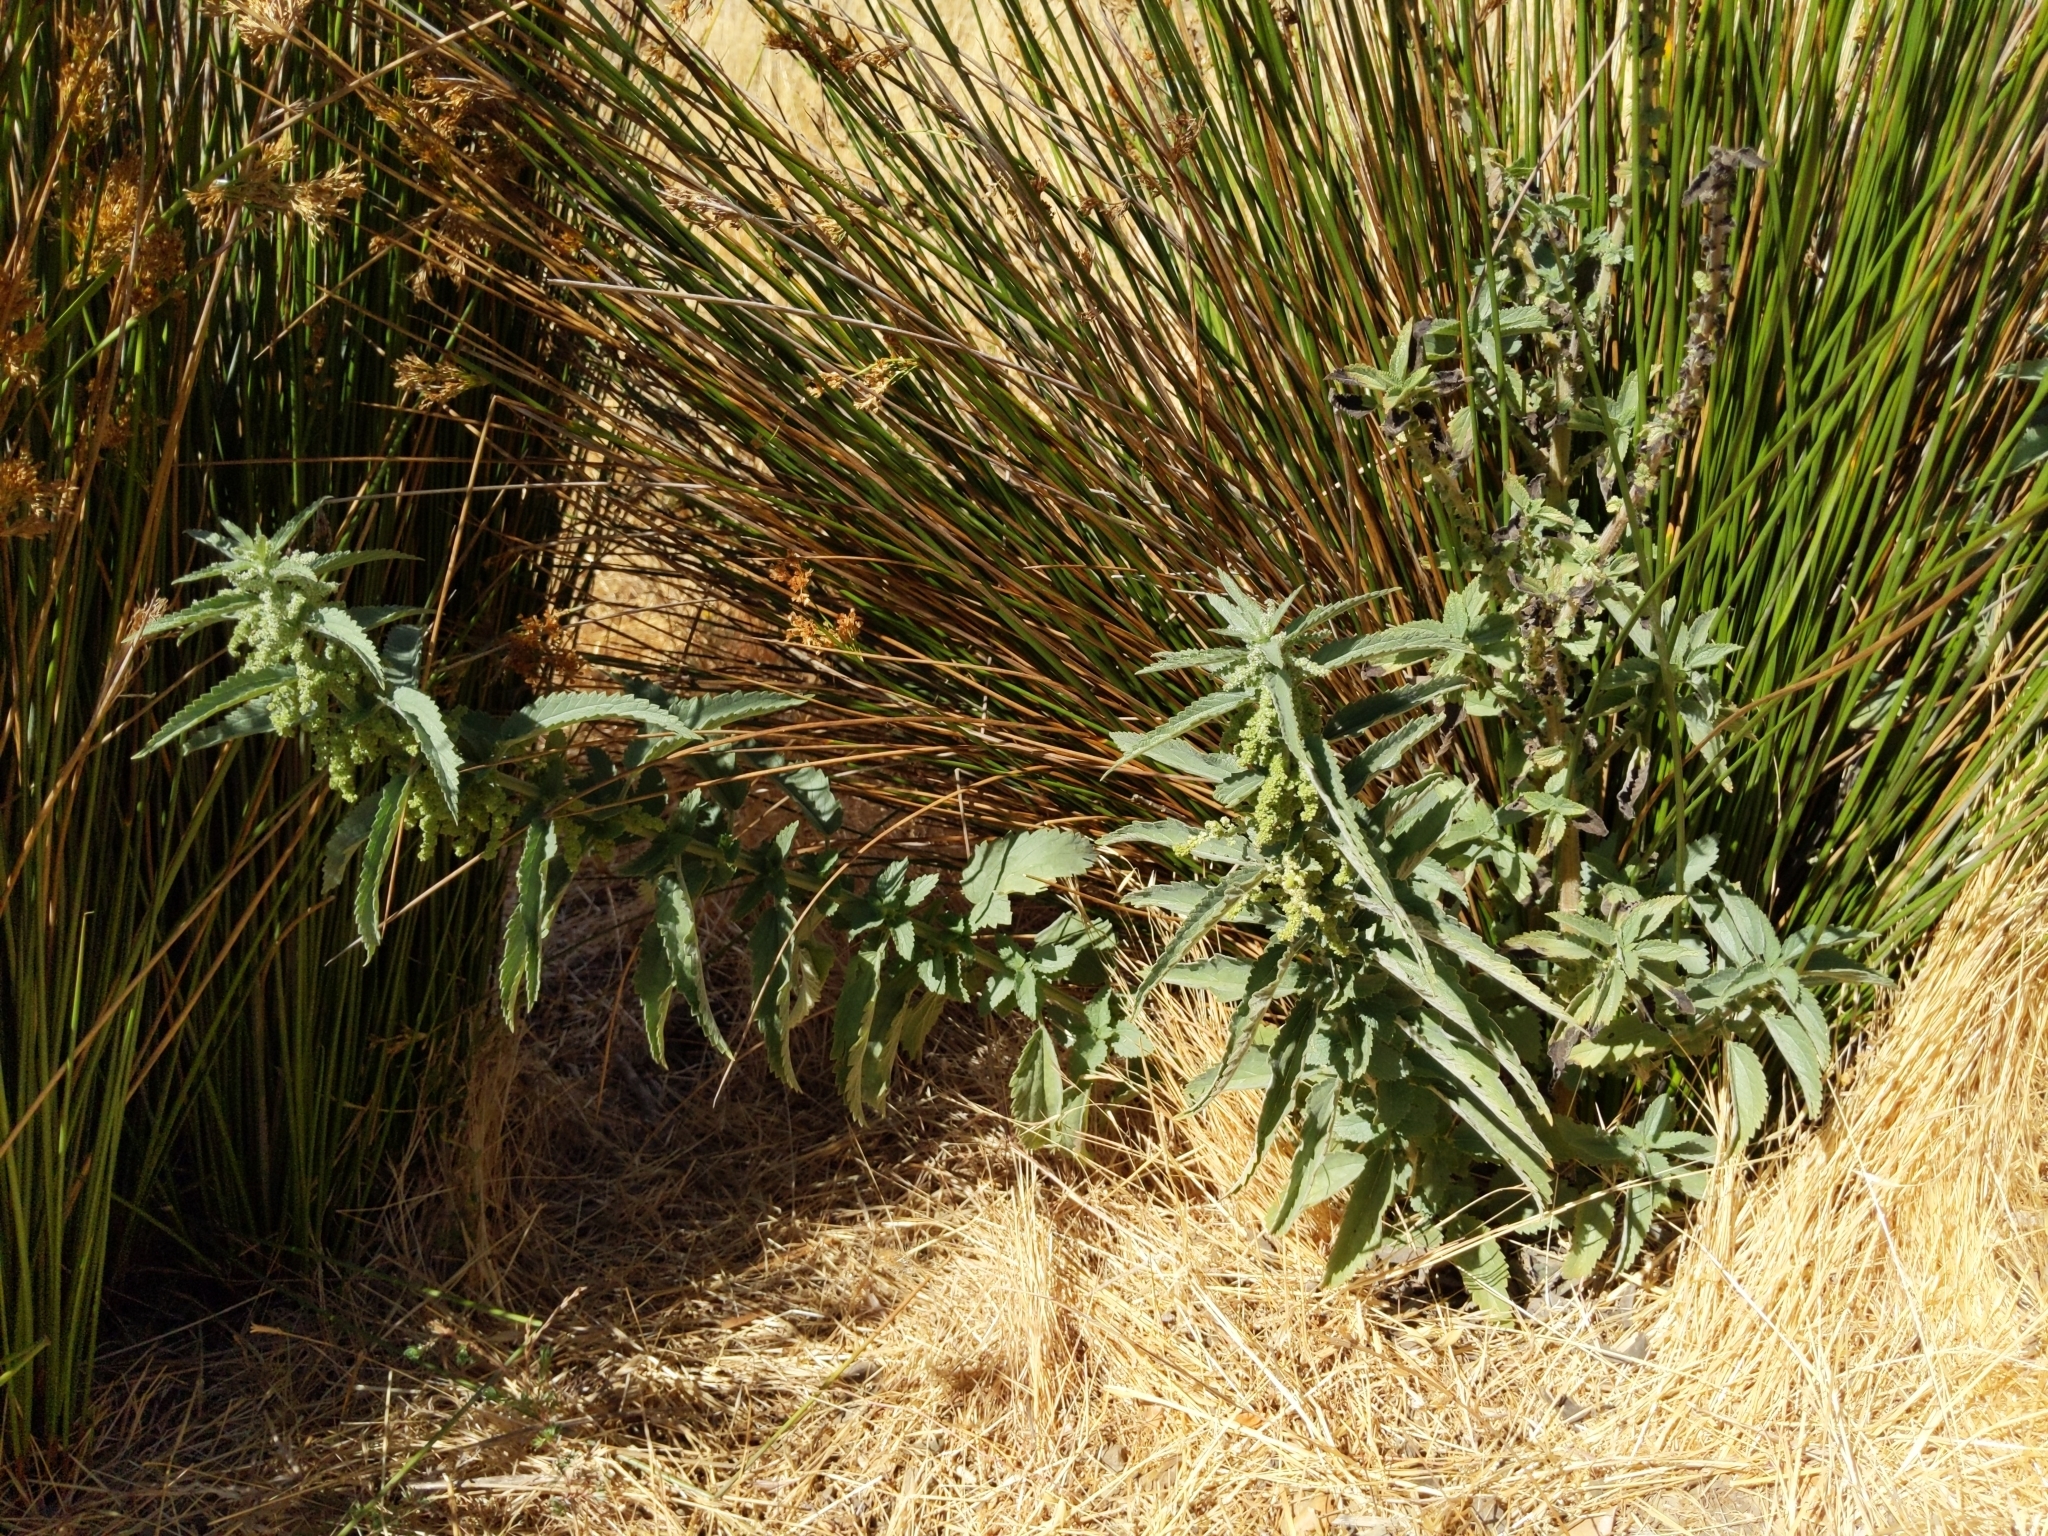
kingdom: Plantae
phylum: Tracheophyta
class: Magnoliopsida
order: Rosales
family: Urticaceae
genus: Urtica
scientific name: Urtica dioica
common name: Common nettle
